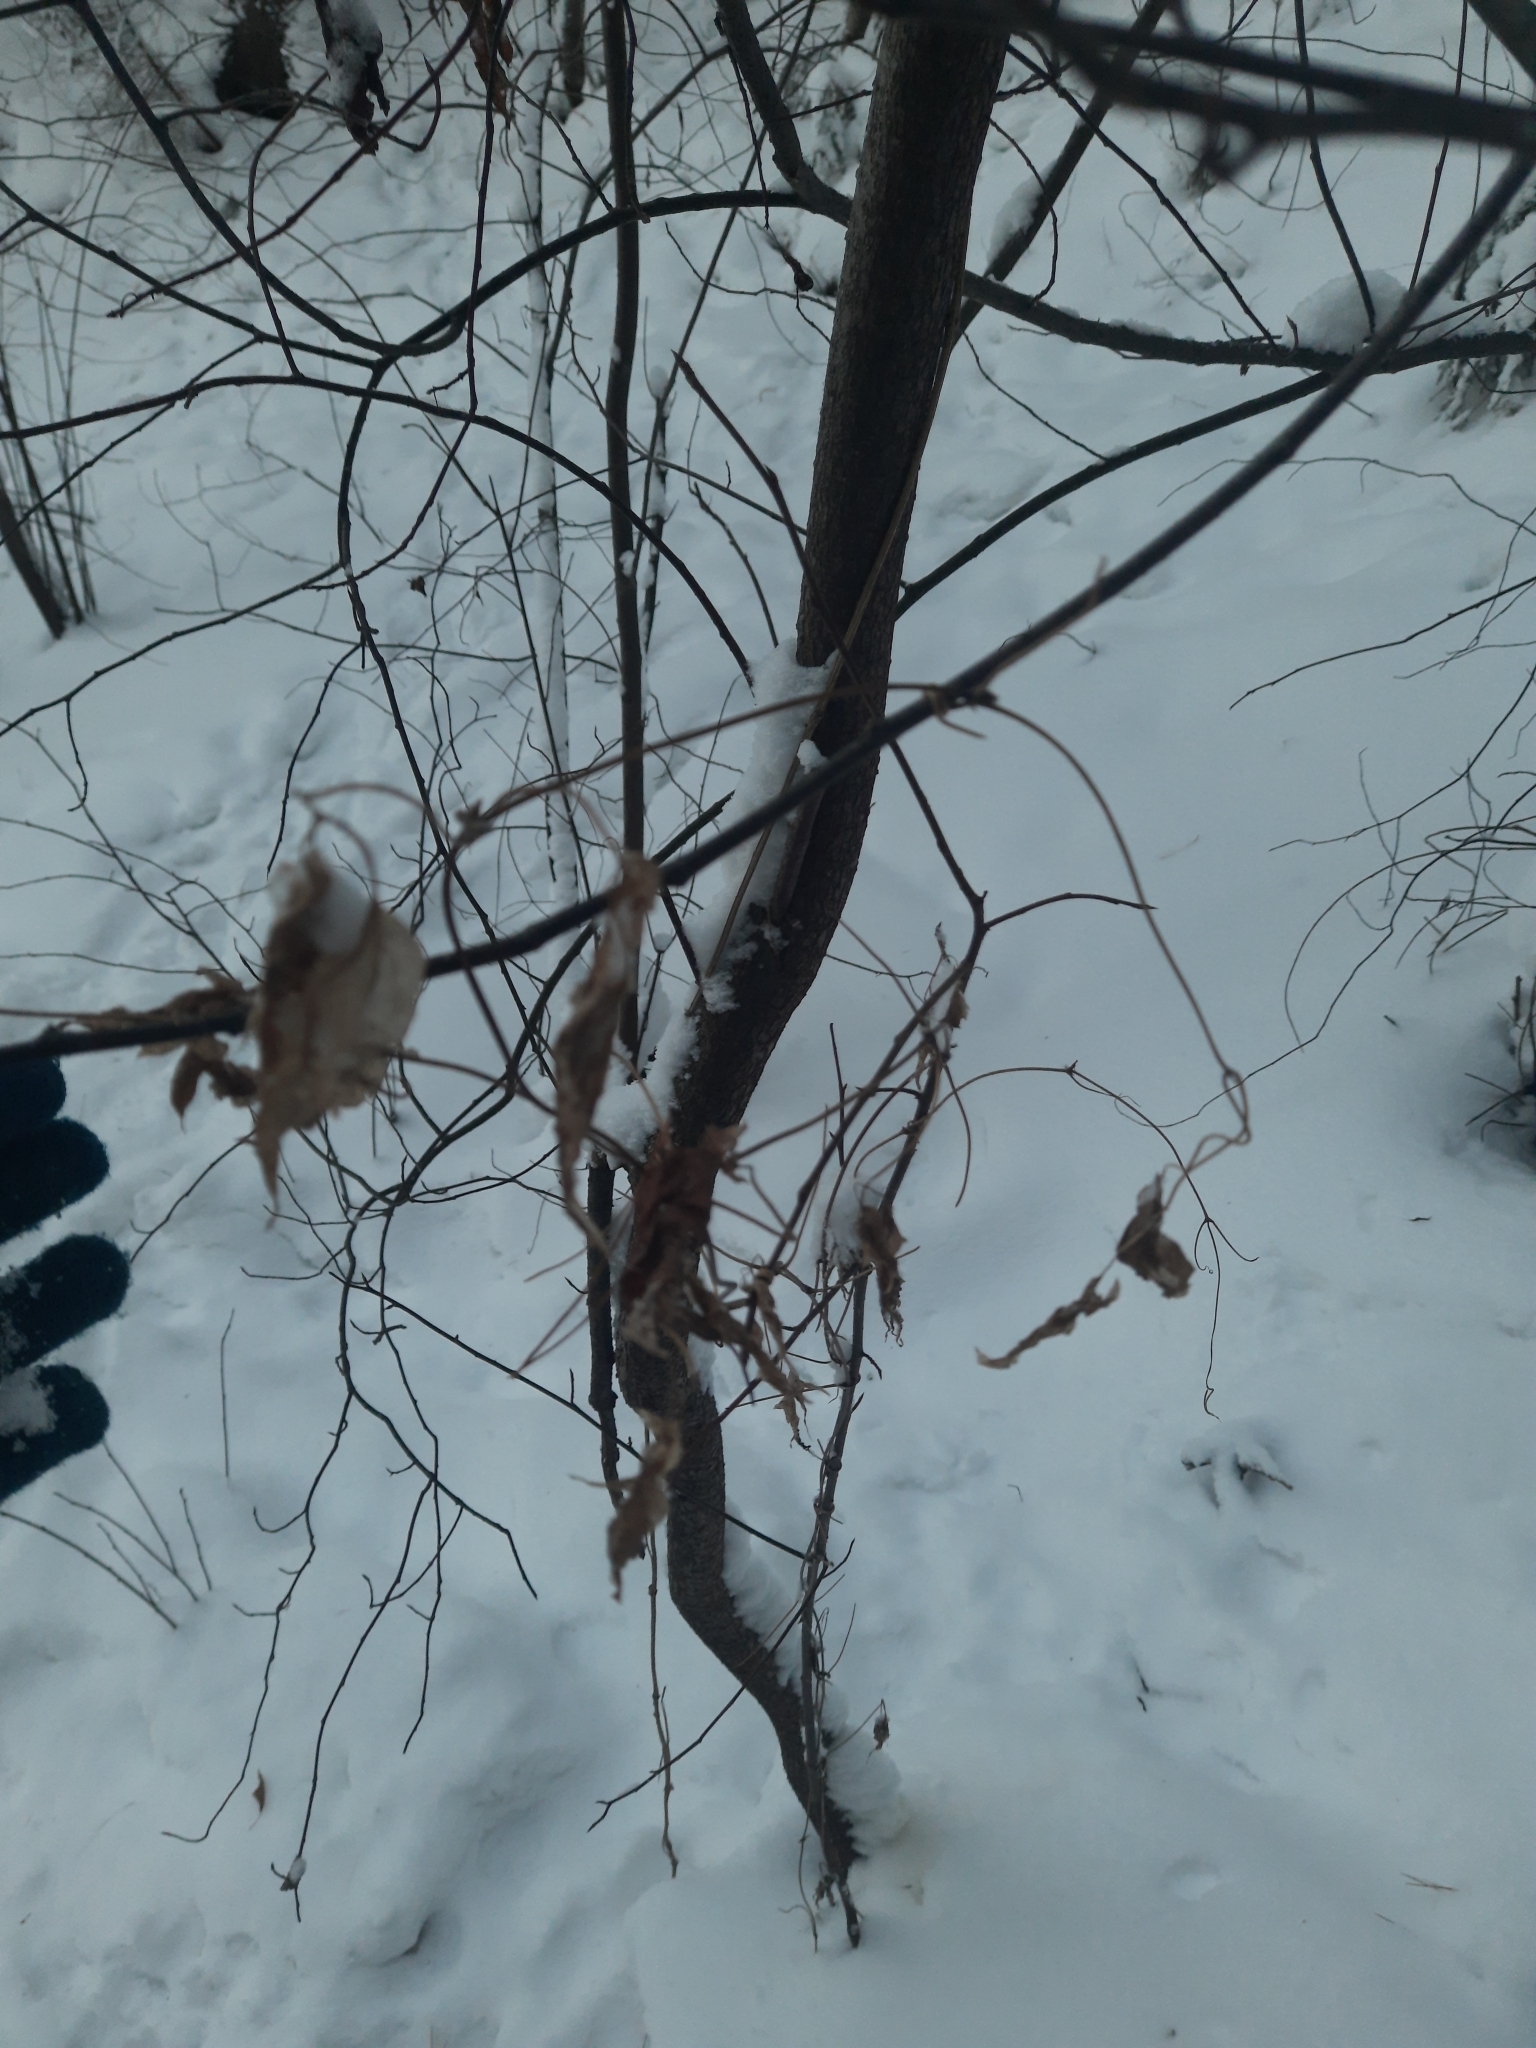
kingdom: Plantae
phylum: Tracheophyta
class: Magnoliopsida
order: Ranunculales
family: Ranunculaceae
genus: Clematis
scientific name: Clematis sibirica
